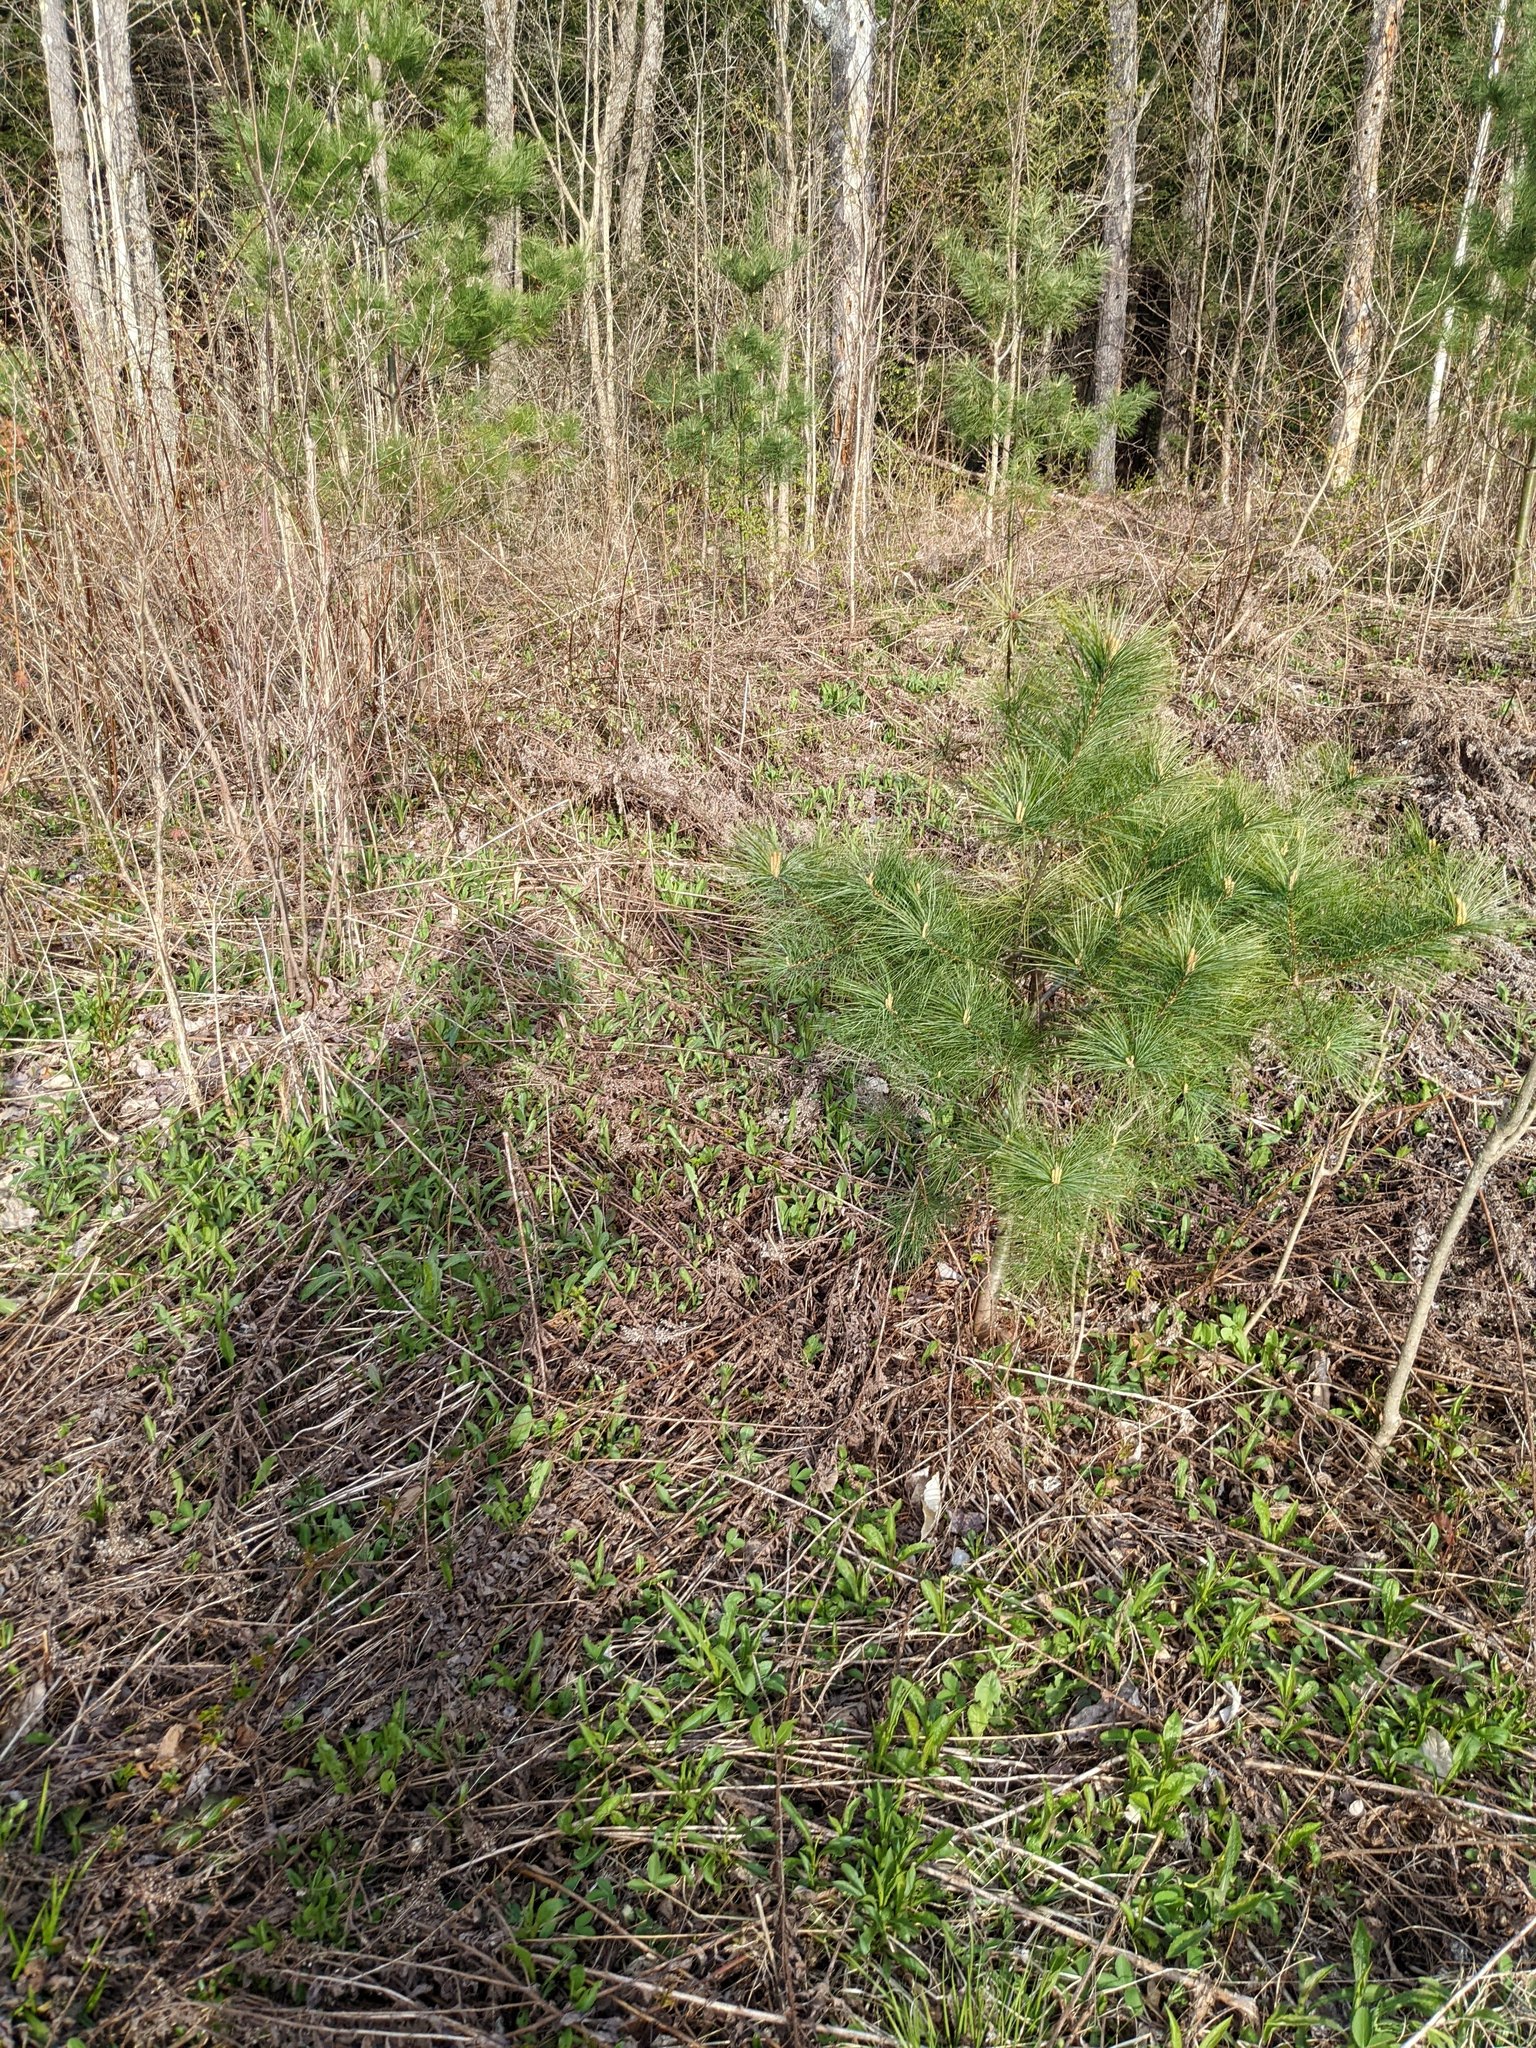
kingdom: Plantae
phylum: Tracheophyta
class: Pinopsida
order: Pinales
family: Pinaceae
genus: Pinus
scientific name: Pinus strobus
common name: Weymouth pine
